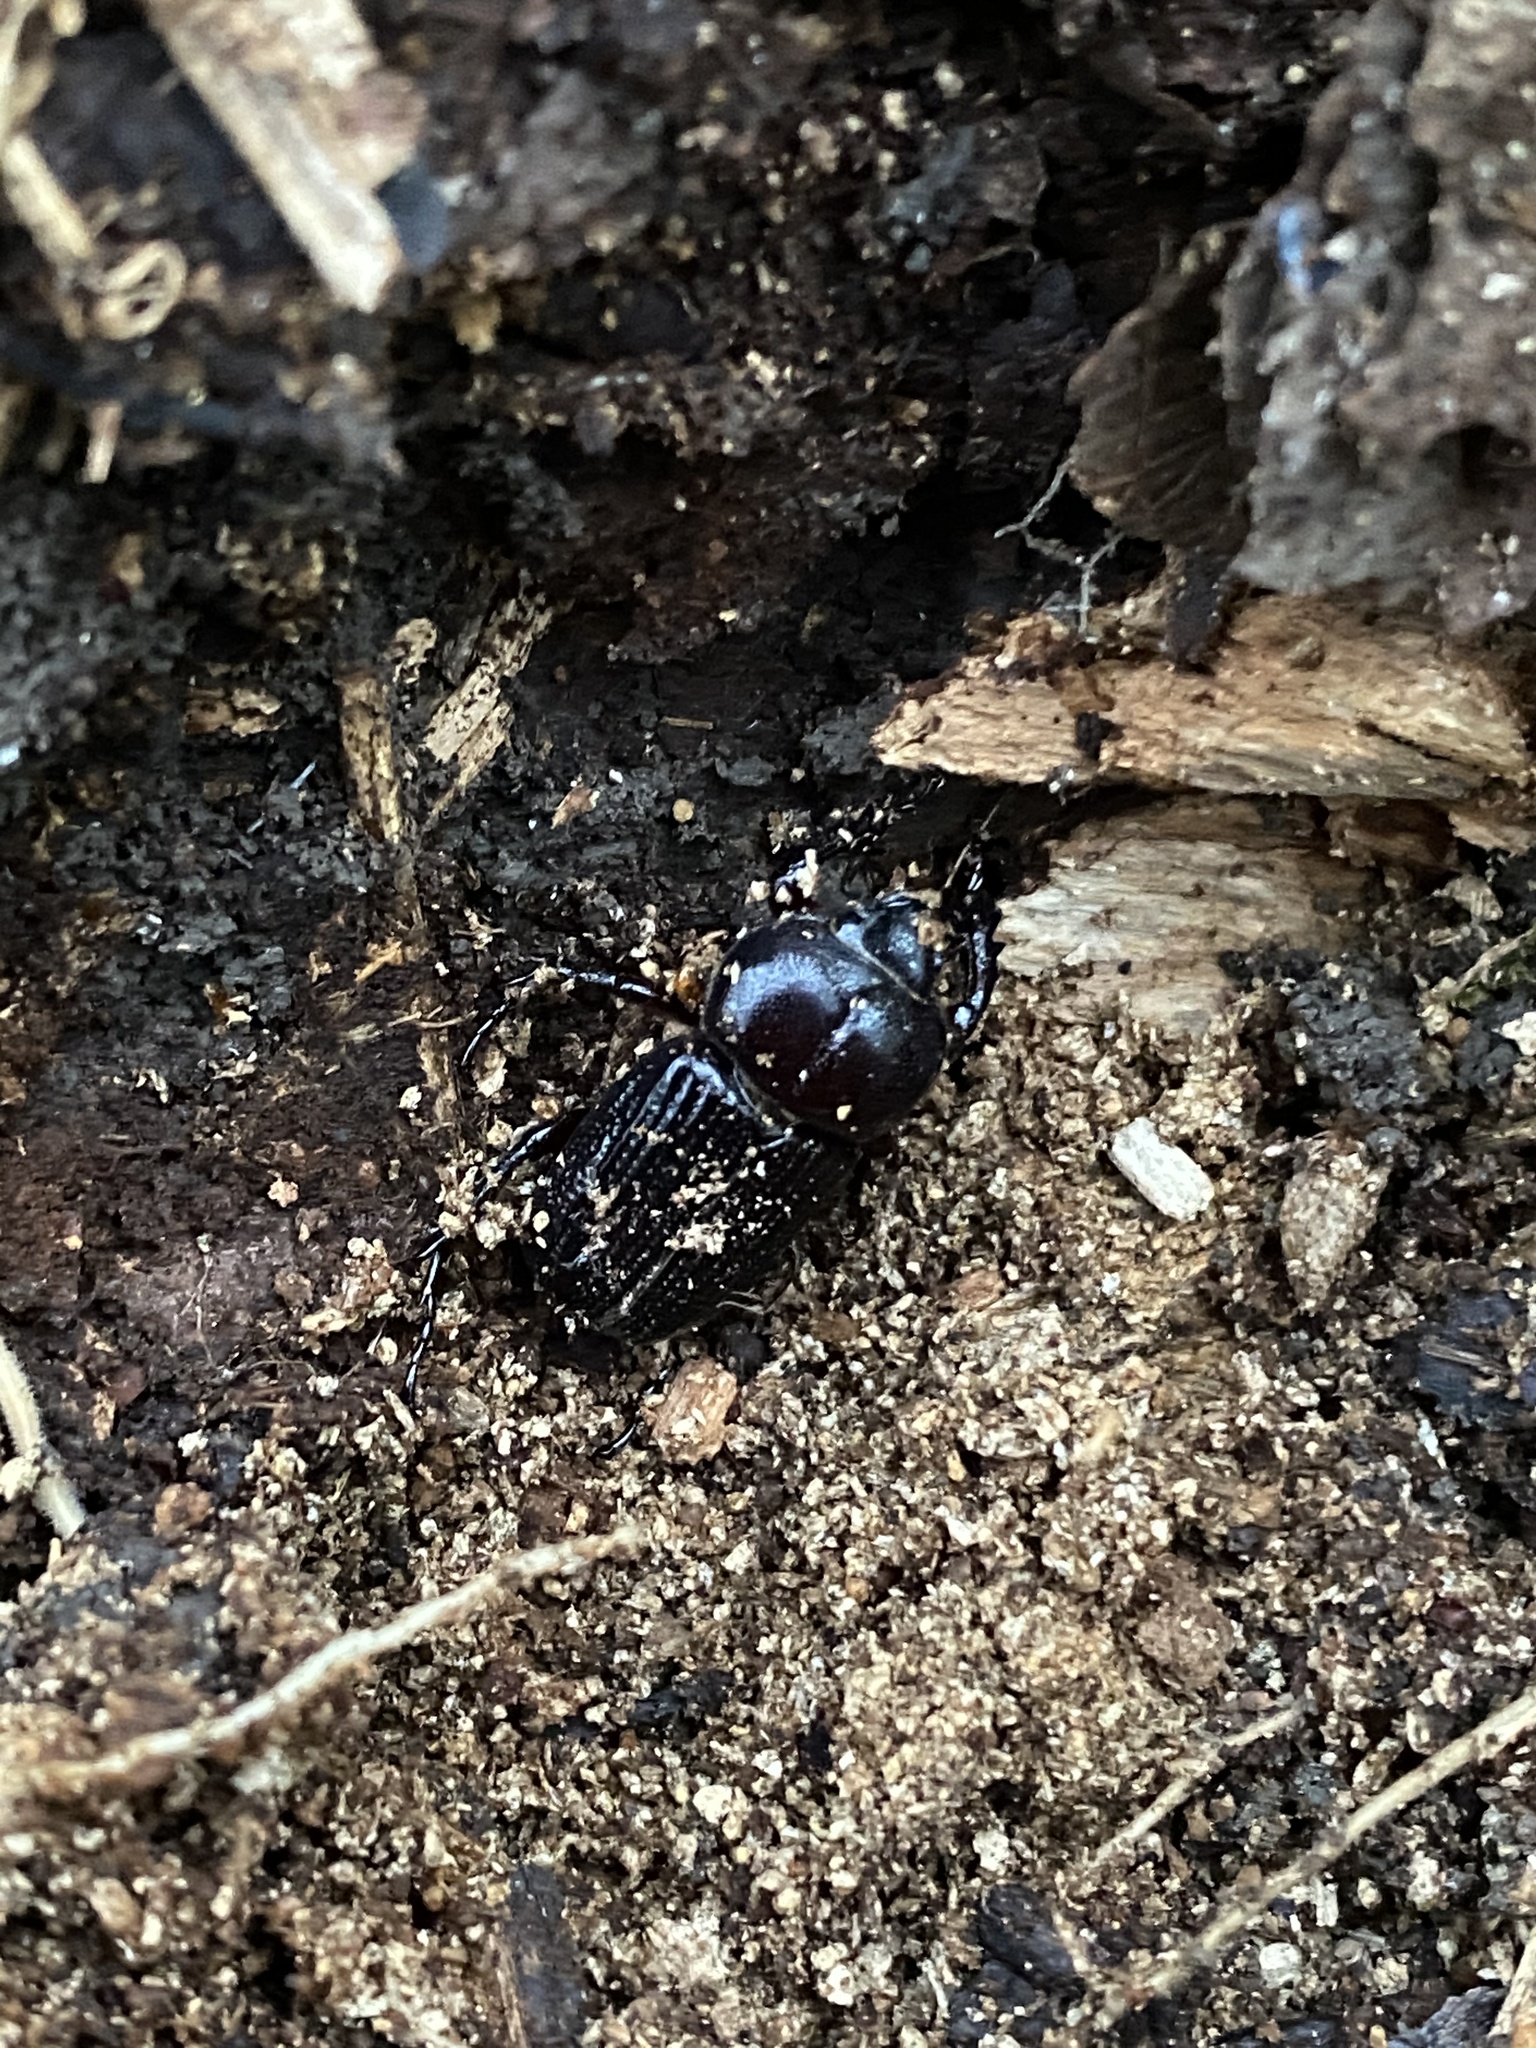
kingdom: Animalia
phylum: Arthropoda
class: Insecta
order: Coleoptera
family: Scarabaeidae
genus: Phileurus
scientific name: Phileurus valgus
